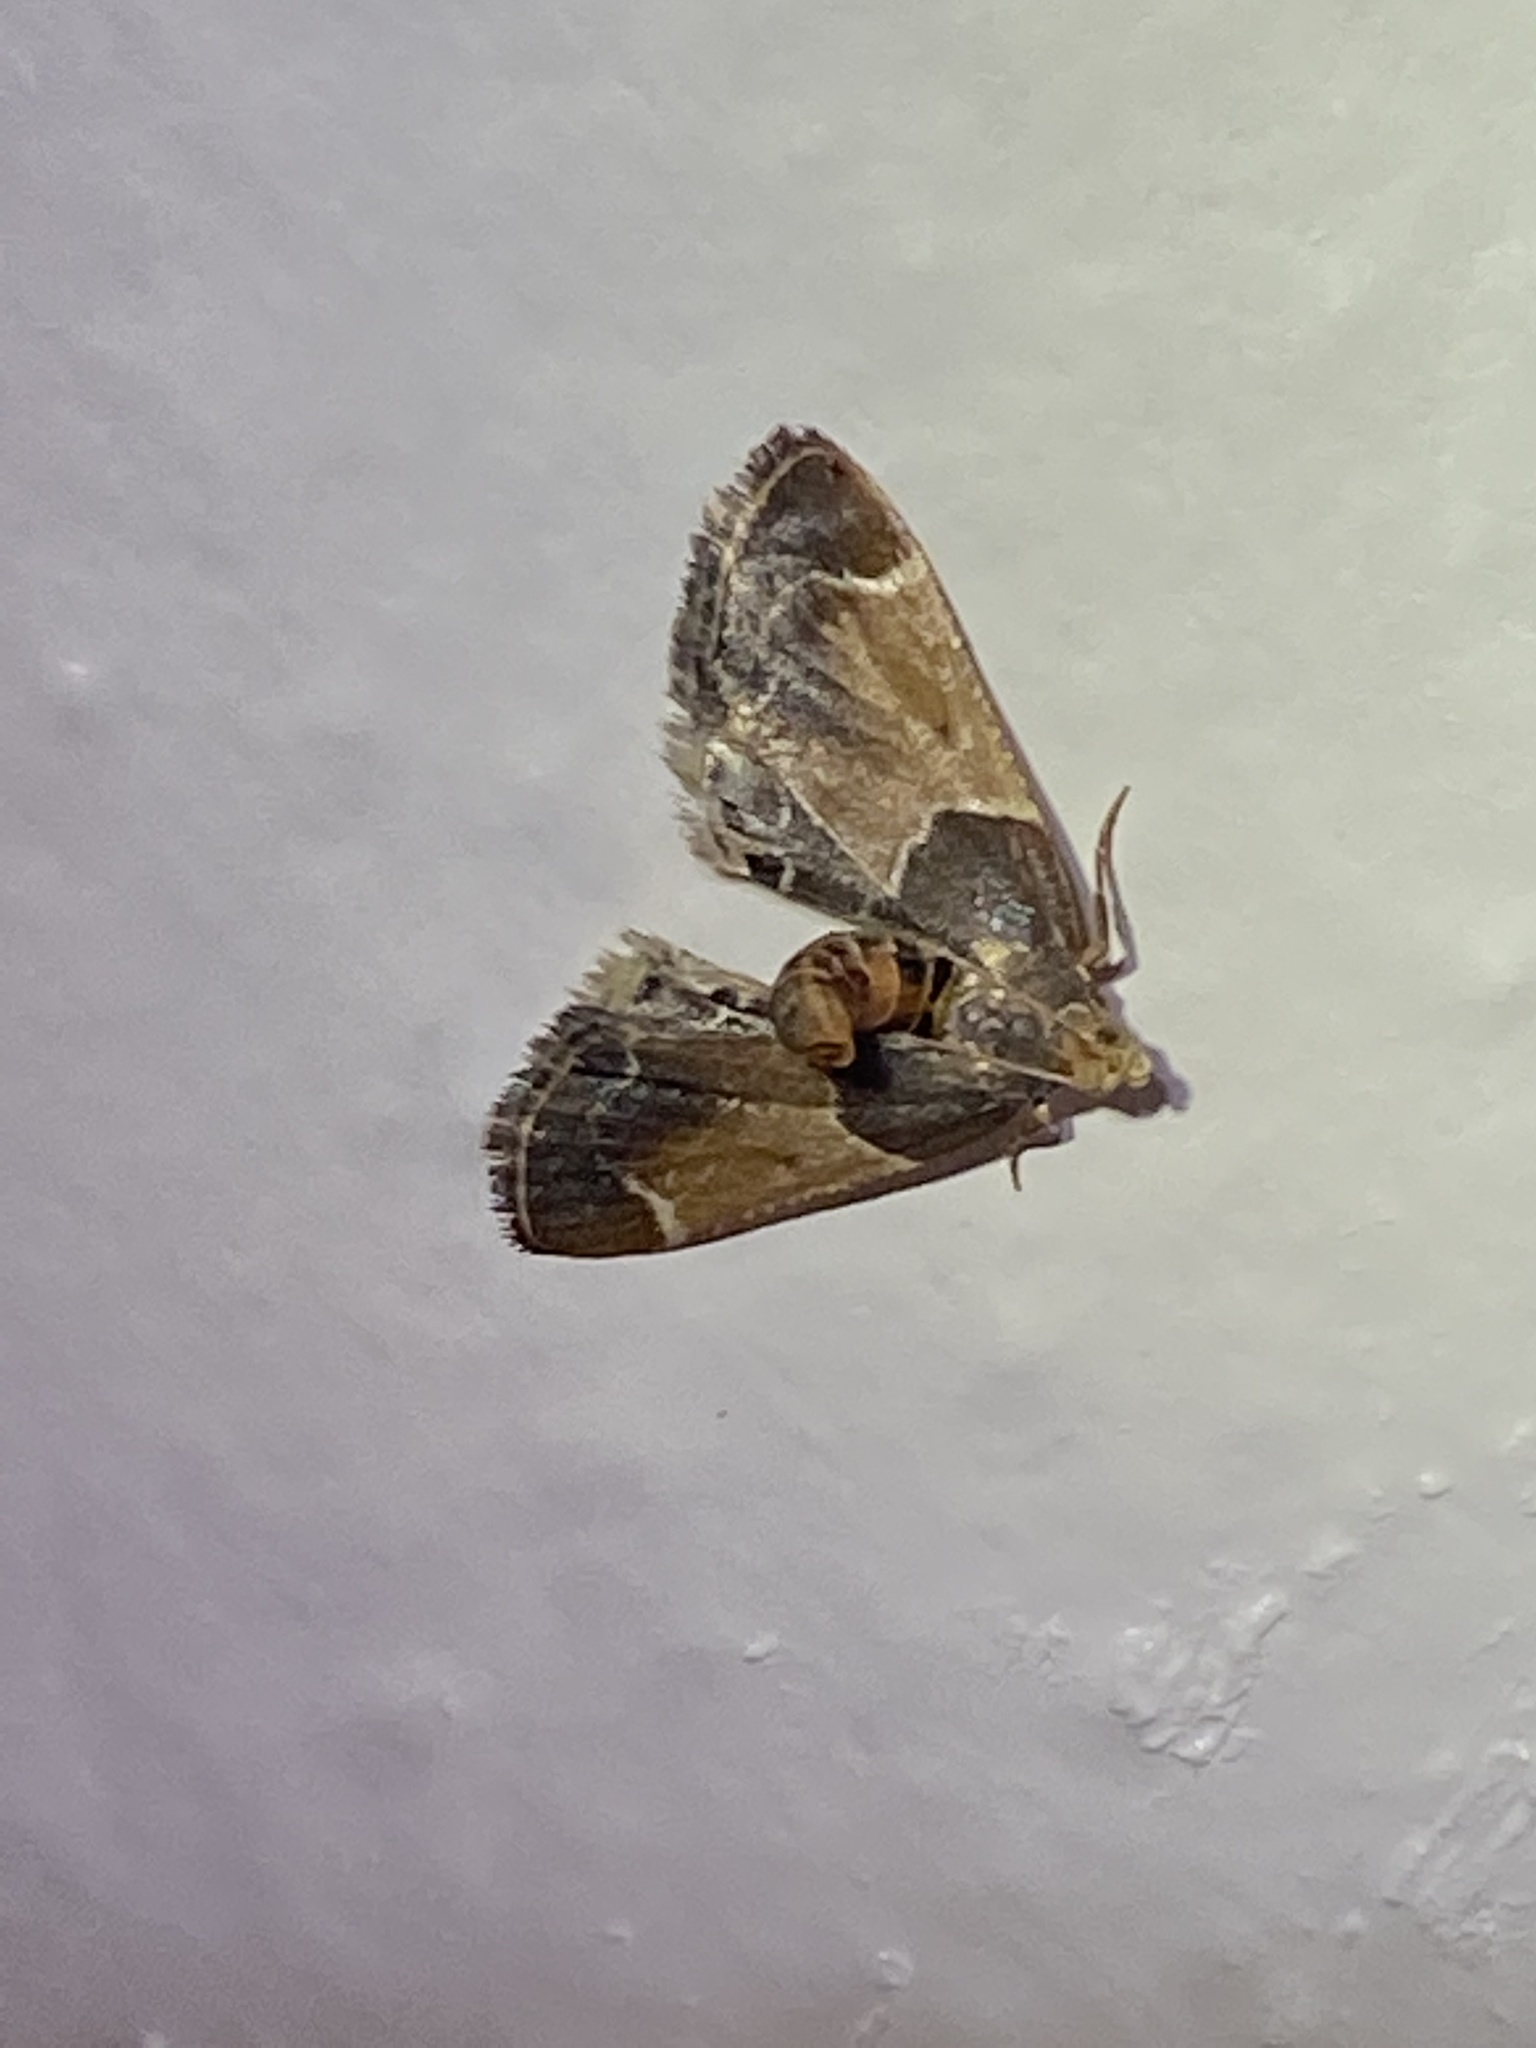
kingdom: Animalia
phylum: Arthropoda
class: Insecta
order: Lepidoptera
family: Pyralidae
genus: Pyralis
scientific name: Pyralis farinalis
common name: Meal moth
